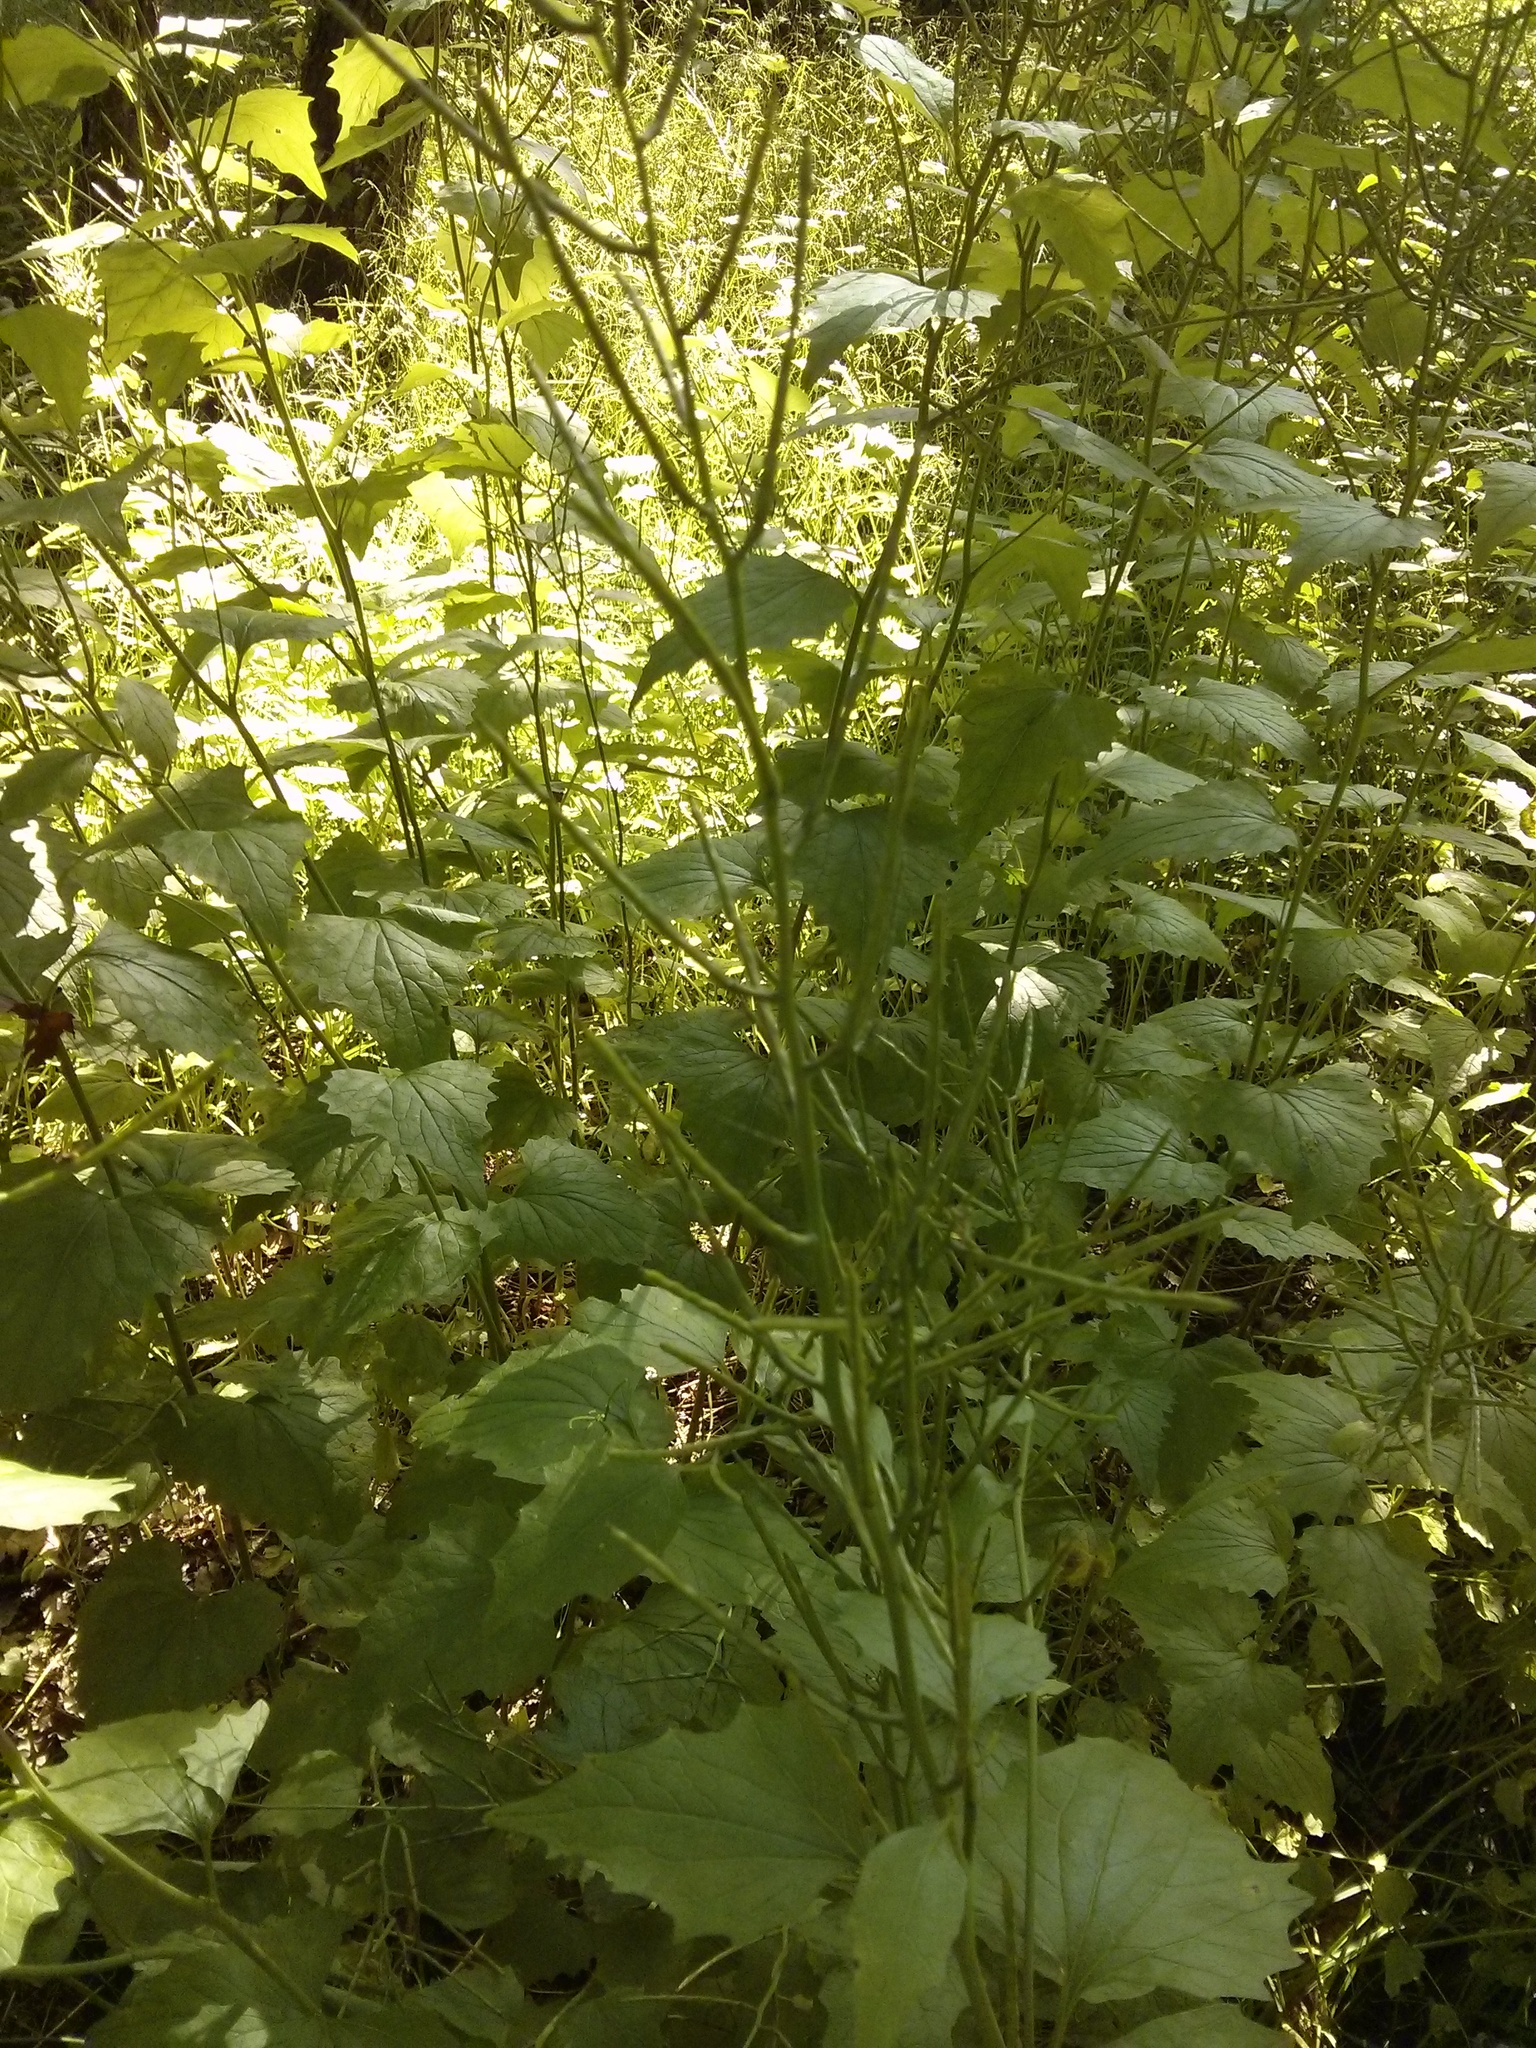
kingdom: Plantae
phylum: Tracheophyta
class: Magnoliopsida
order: Brassicales
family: Brassicaceae
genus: Alliaria
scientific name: Alliaria petiolata
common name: Garlic mustard
